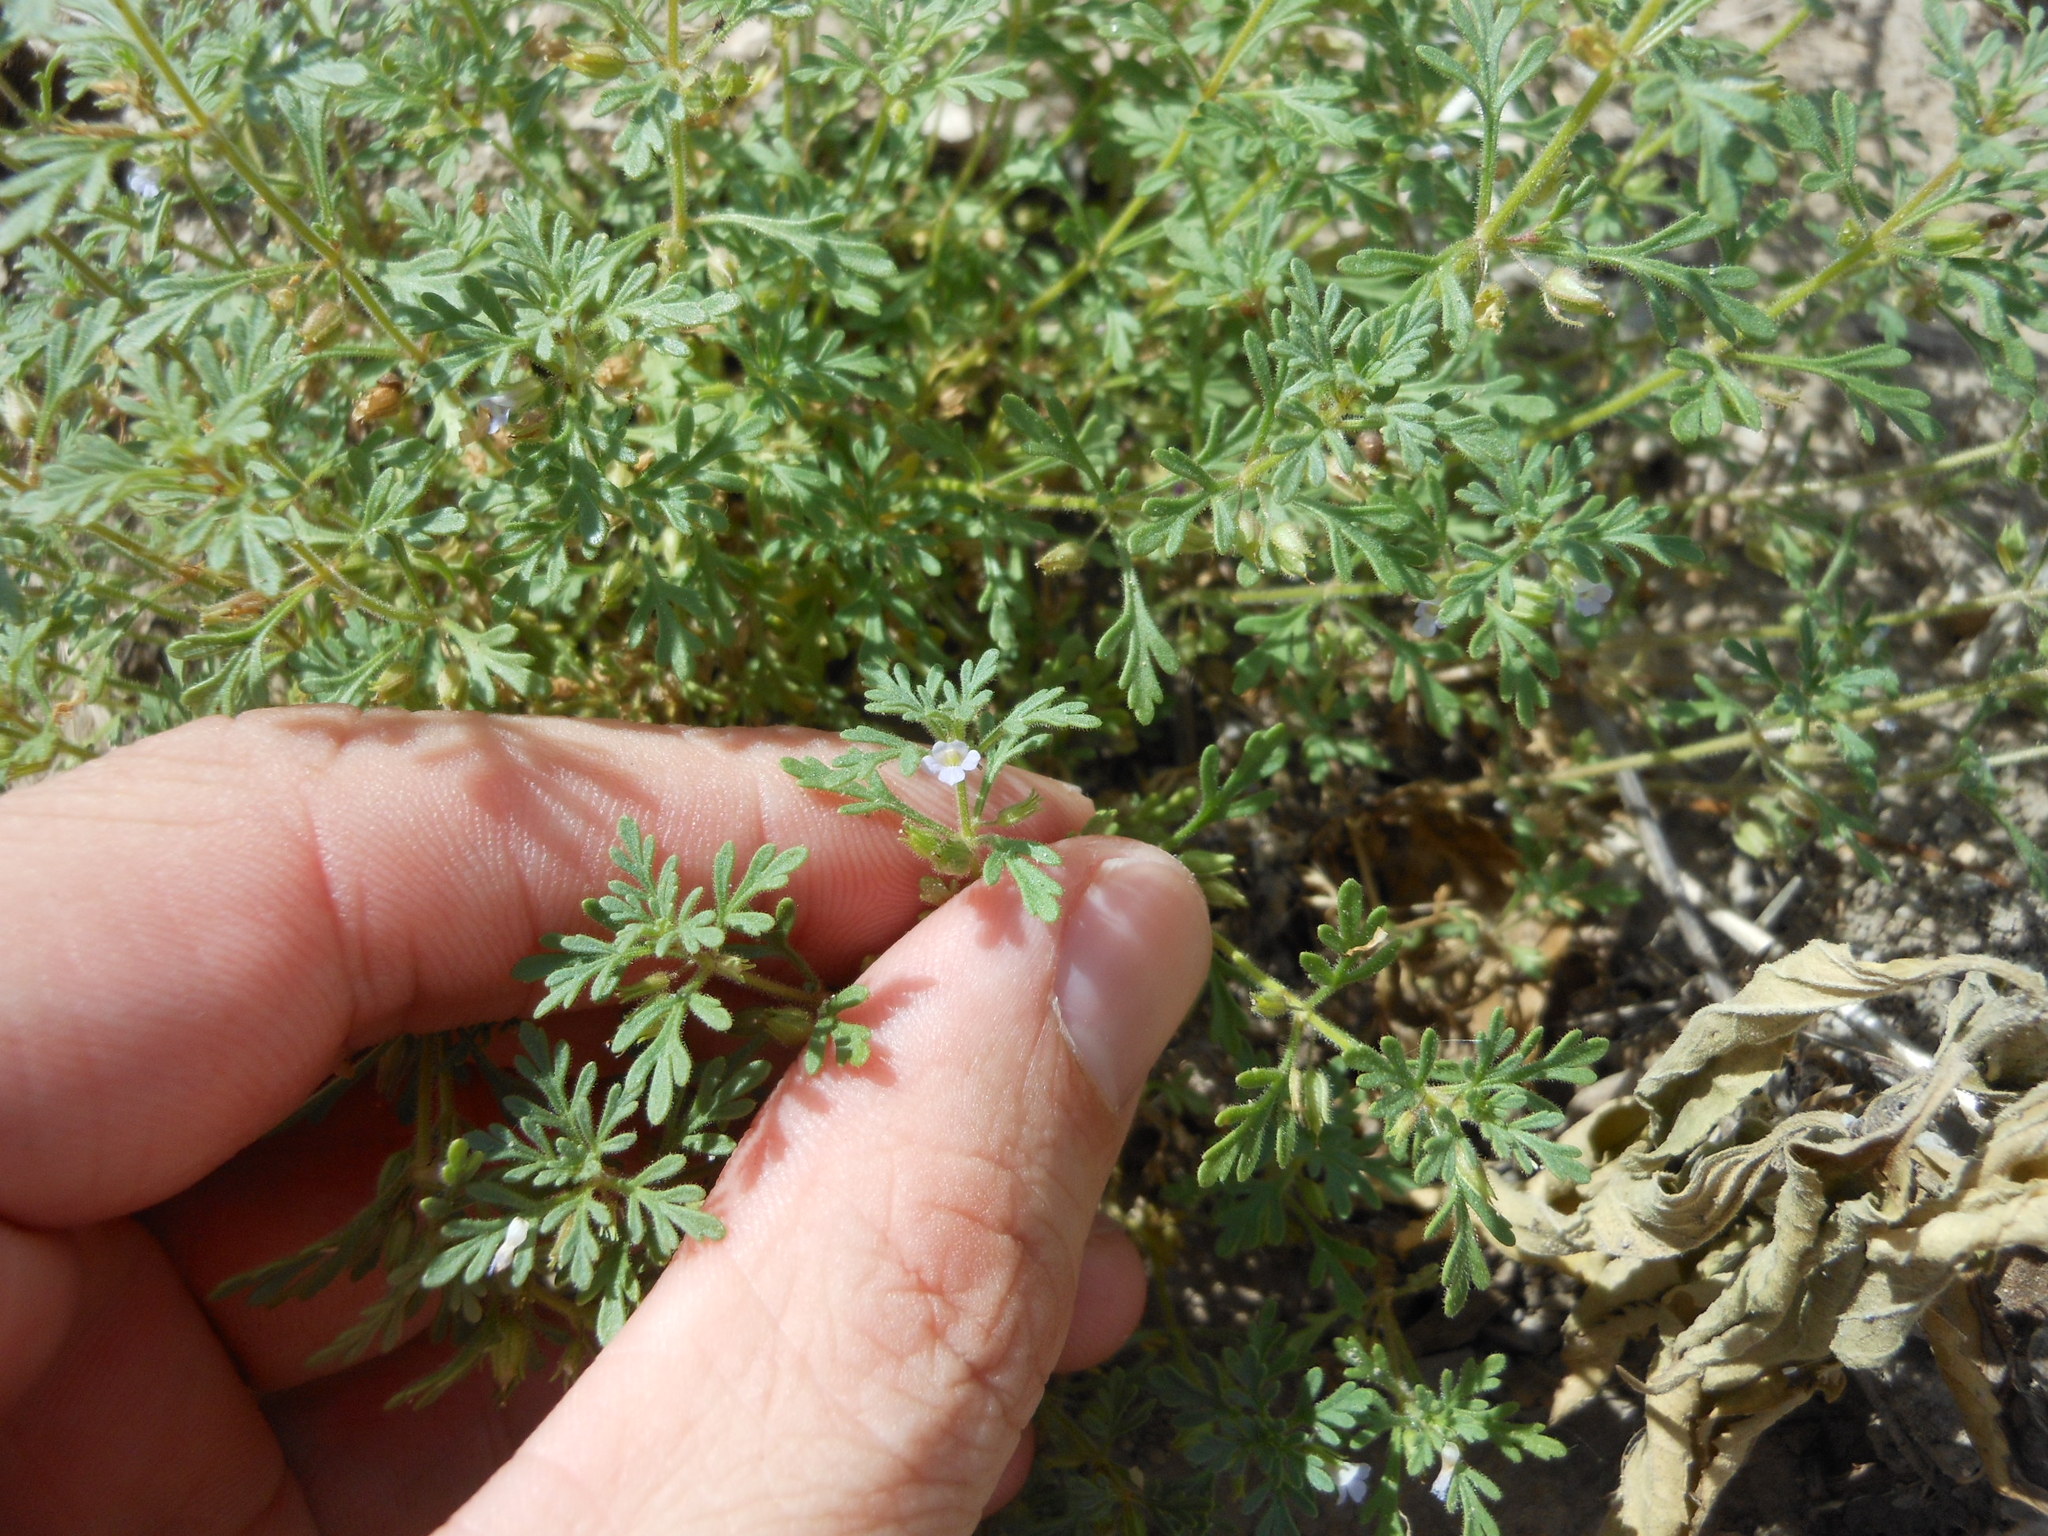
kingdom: Plantae
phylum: Tracheophyta
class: Magnoliopsida
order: Lamiales
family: Plantaginaceae
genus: Leucospora
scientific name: Leucospora multifida
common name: Narrow-leaf paleseed
